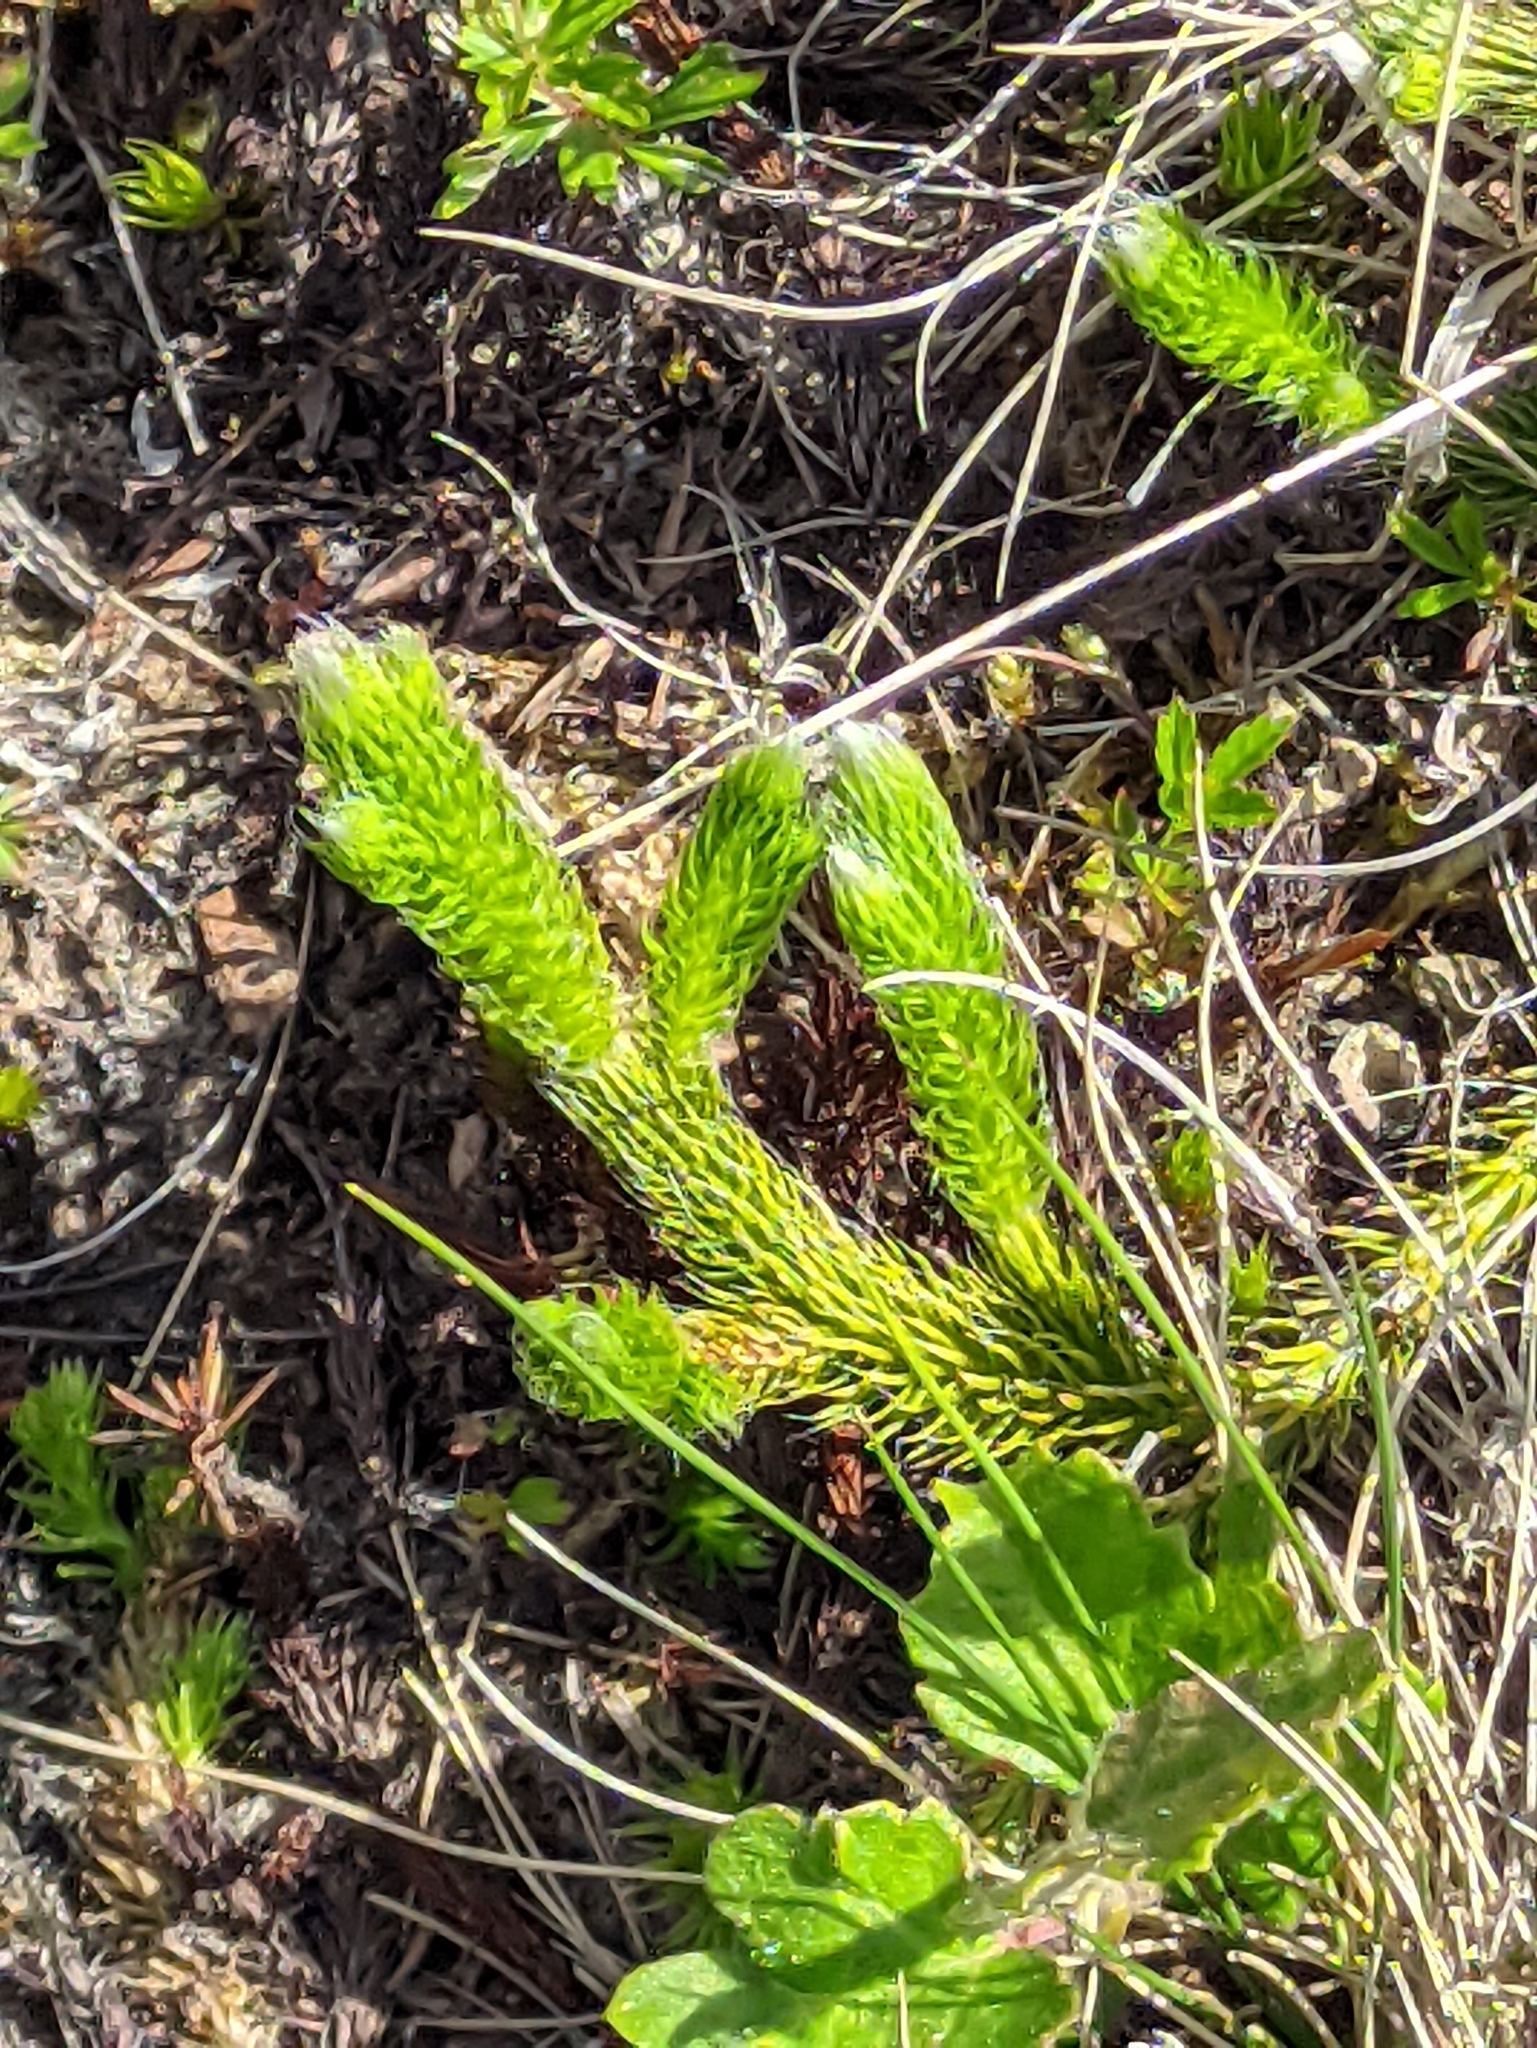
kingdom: Plantae
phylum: Tracheophyta
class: Lycopodiopsida
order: Lycopodiales
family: Lycopodiaceae
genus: Lycopodium
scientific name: Lycopodium clavatum
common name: Stag's-horn clubmoss
